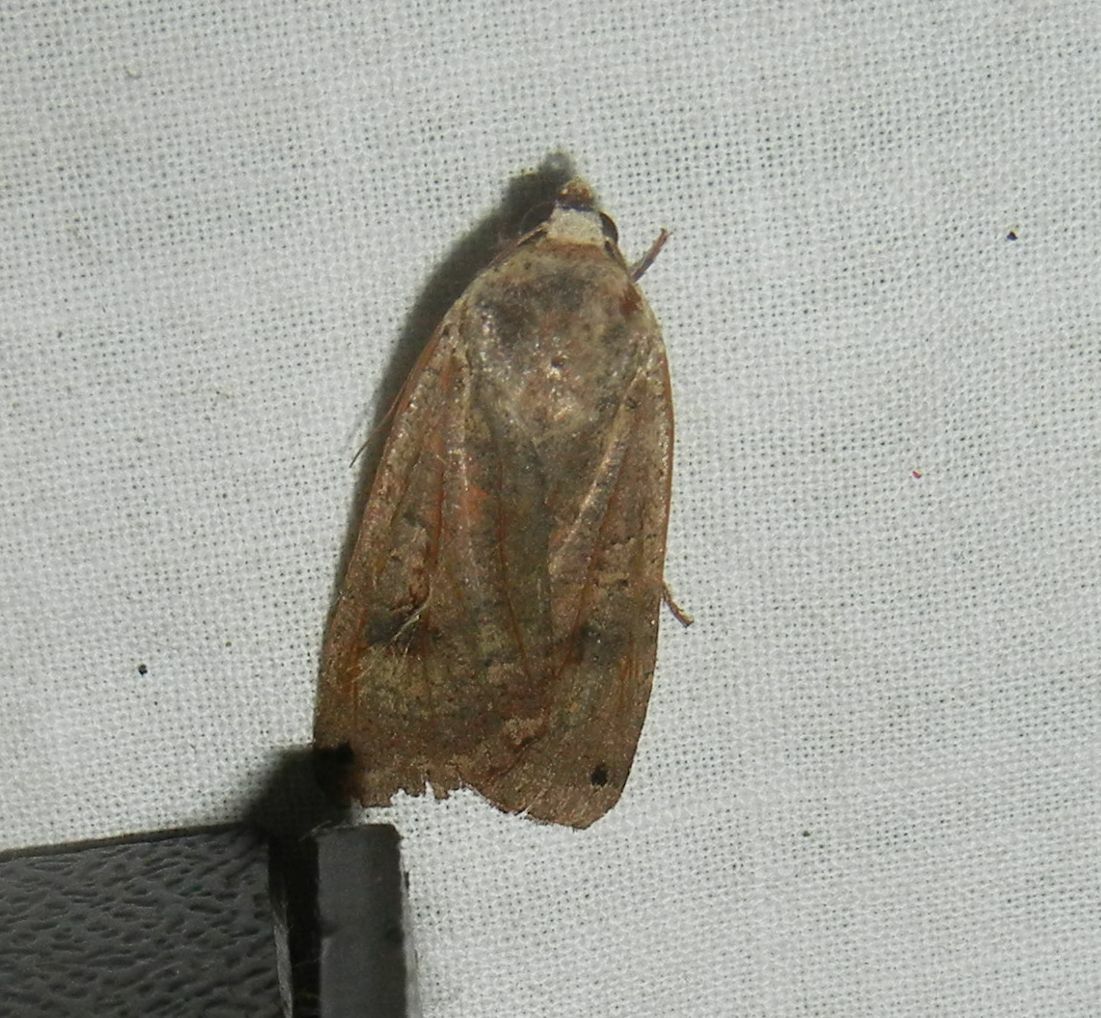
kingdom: Animalia
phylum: Arthropoda
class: Insecta
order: Lepidoptera
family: Noctuidae
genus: Noctua
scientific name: Noctua pronuba
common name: Large yellow underwing
